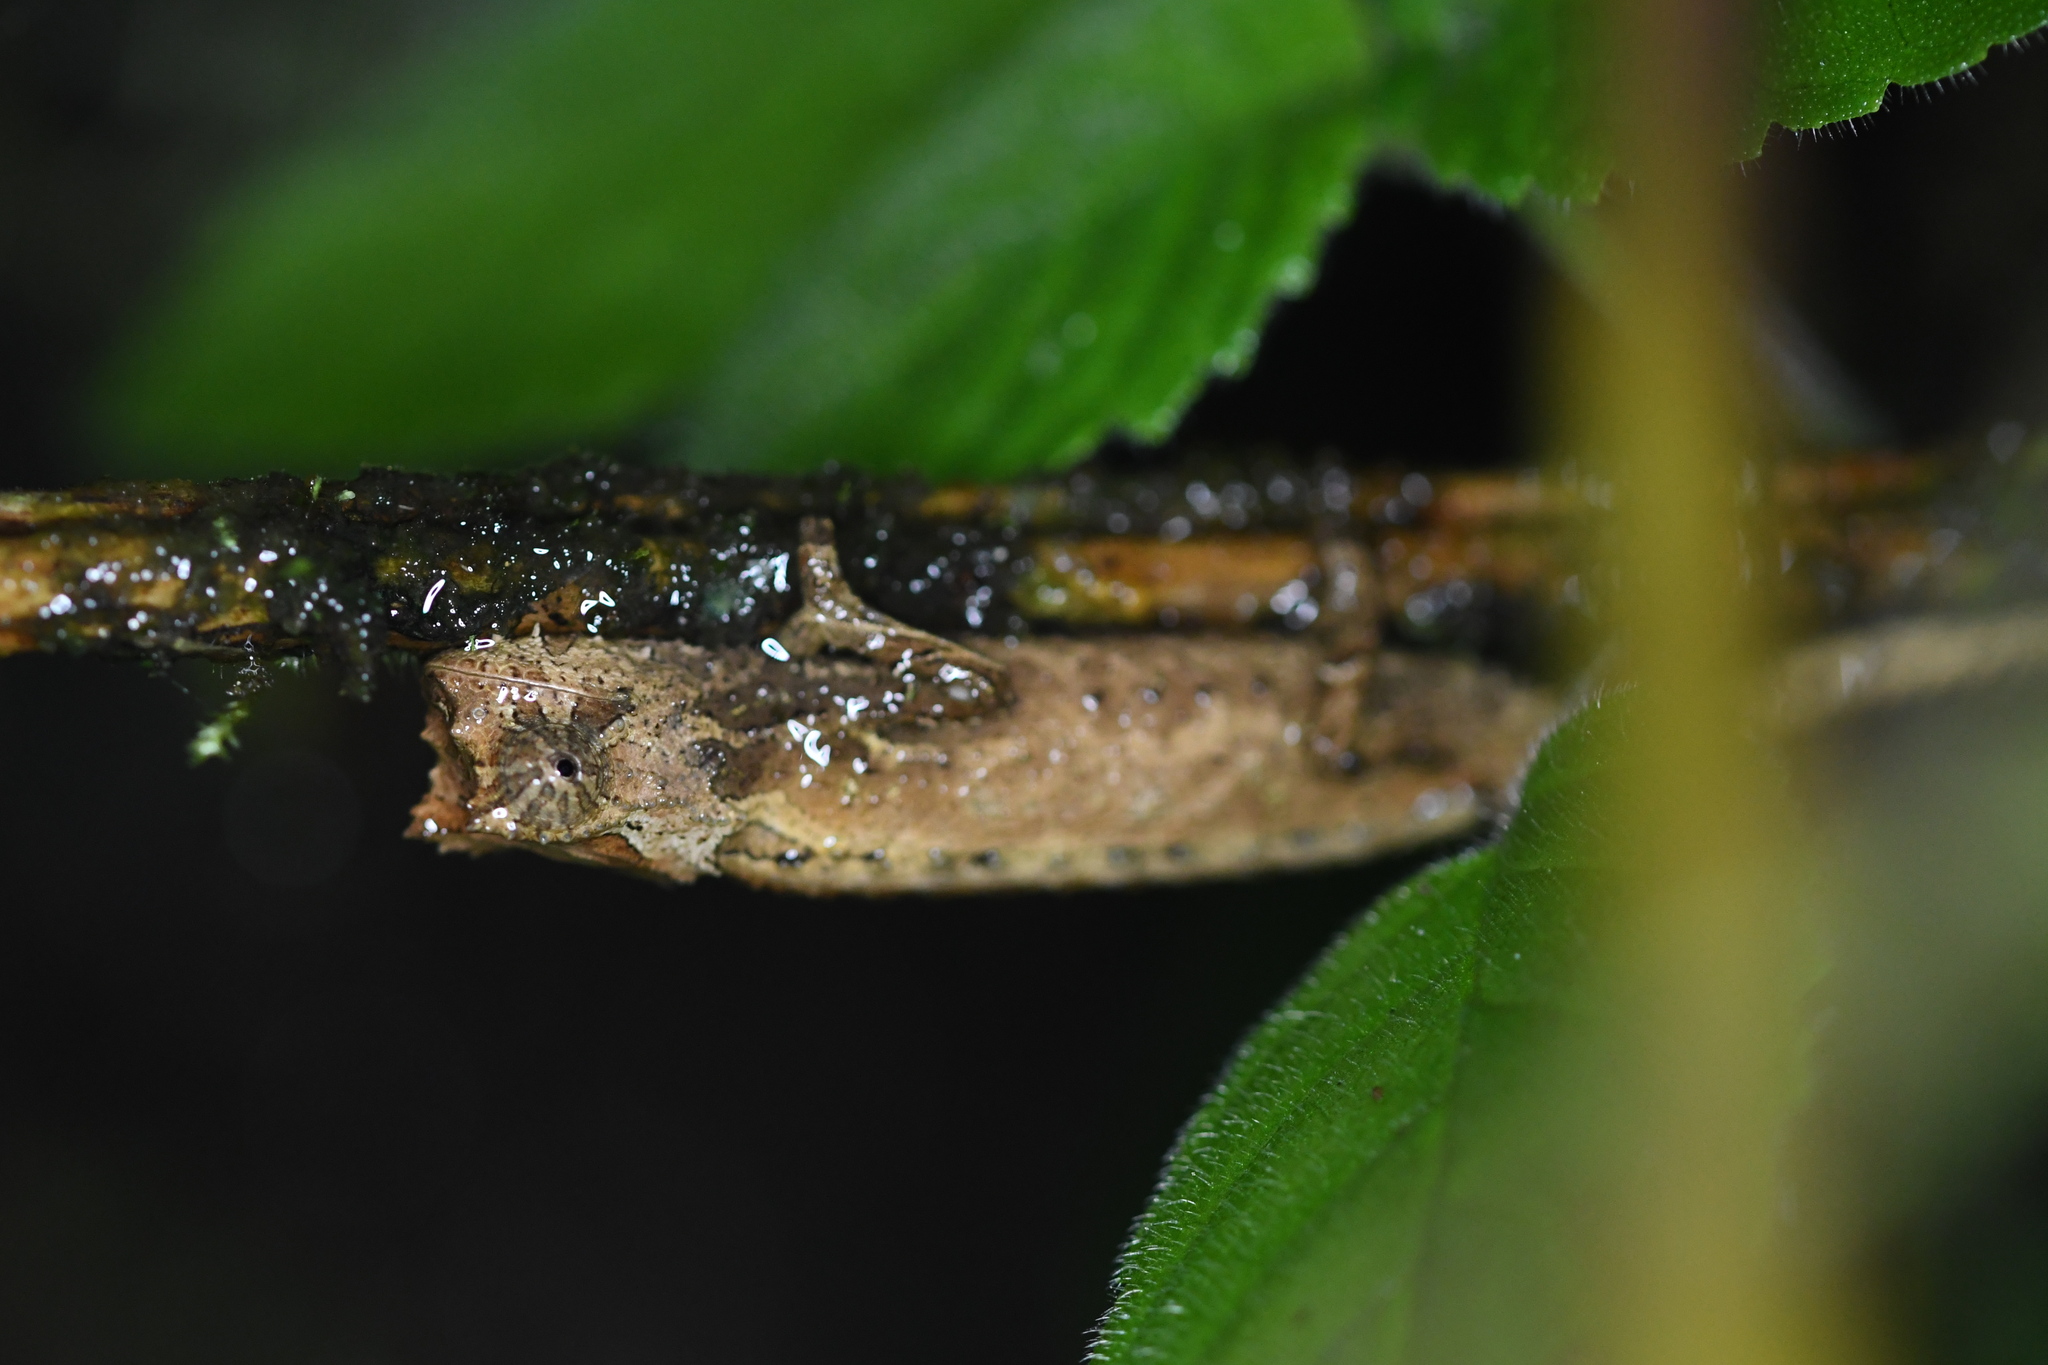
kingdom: Animalia
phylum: Chordata
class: Squamata
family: Chamaeleonidae
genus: Brookesia
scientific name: Brookesia thieli
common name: Domergue's leaf chameleon
